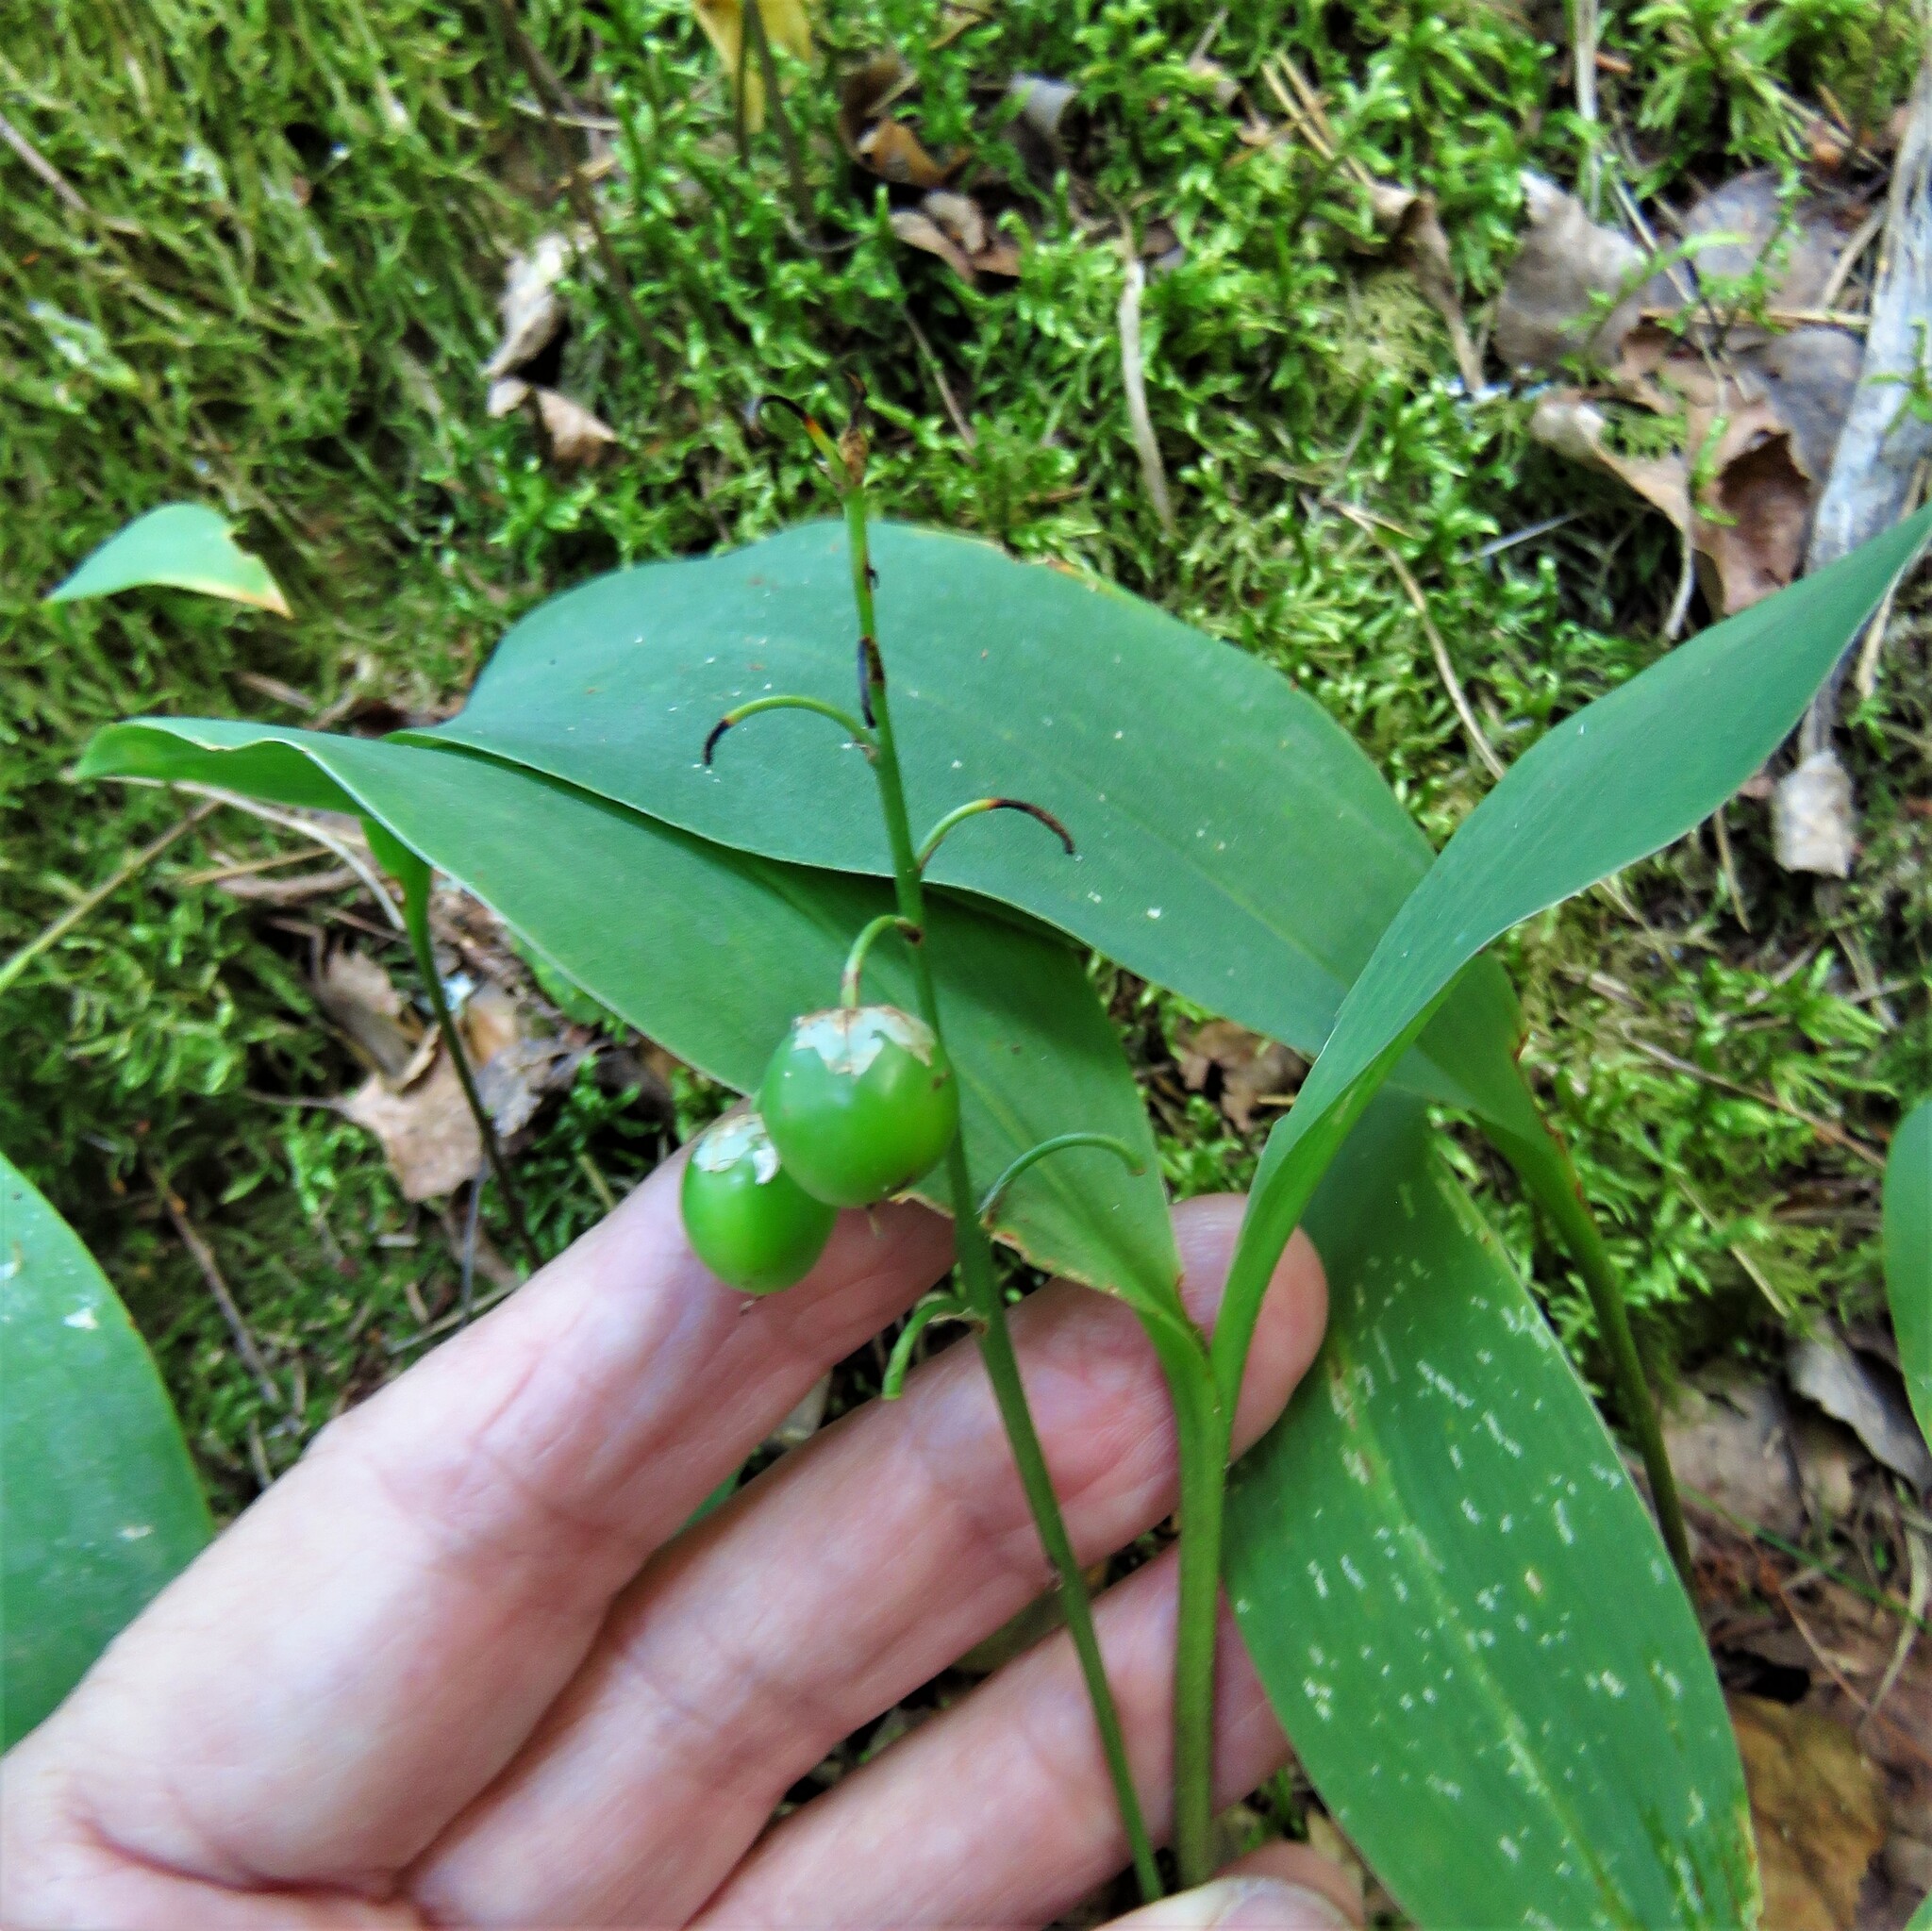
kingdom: Plantae
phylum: Tracheophyta
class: Liliopsida
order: Asparagales
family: Asparagaceae
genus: Convallaria
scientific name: Convallaria majalis
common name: Lily-of-the-valley
